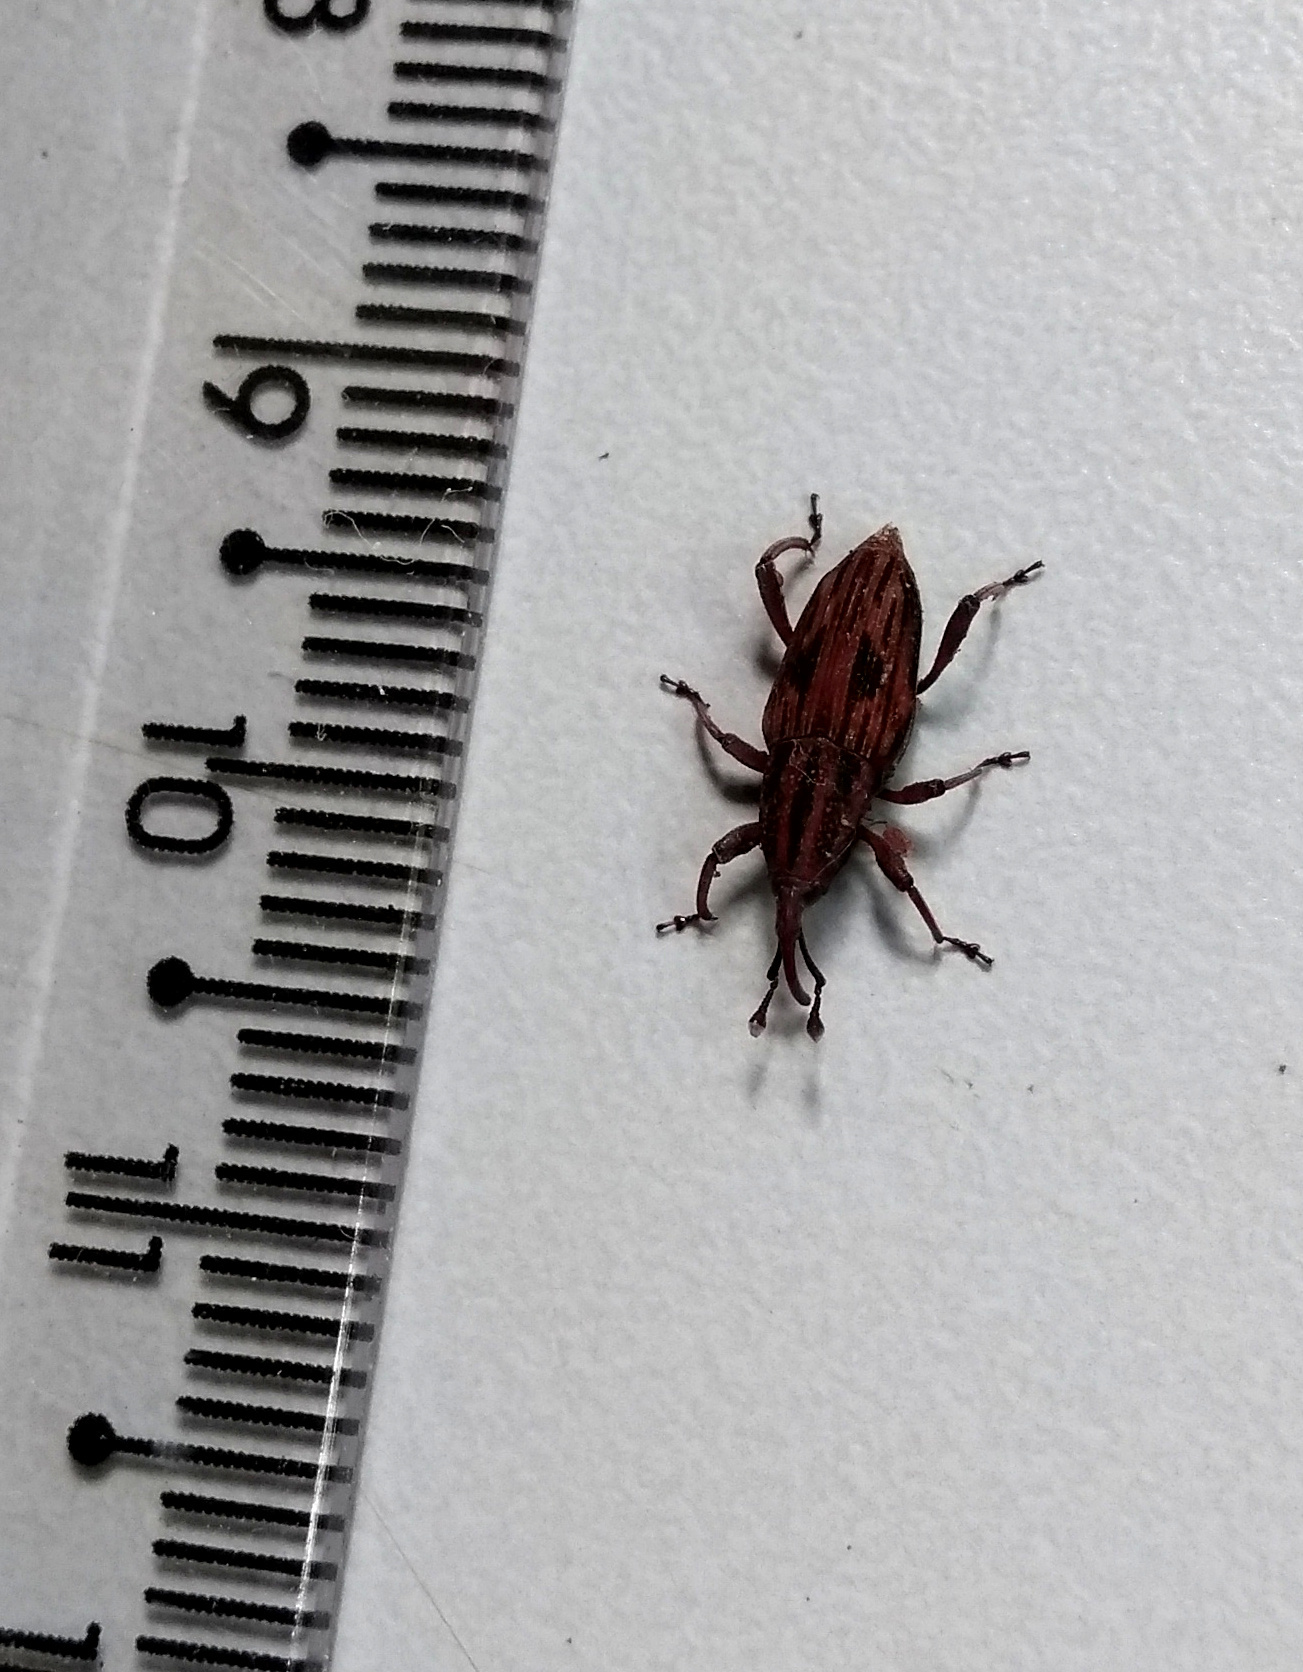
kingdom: Animalia
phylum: Arthropoda
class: Insecta
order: Coleoptera
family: Dryophthoridae
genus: Paramasius
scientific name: Paramasius distortus
